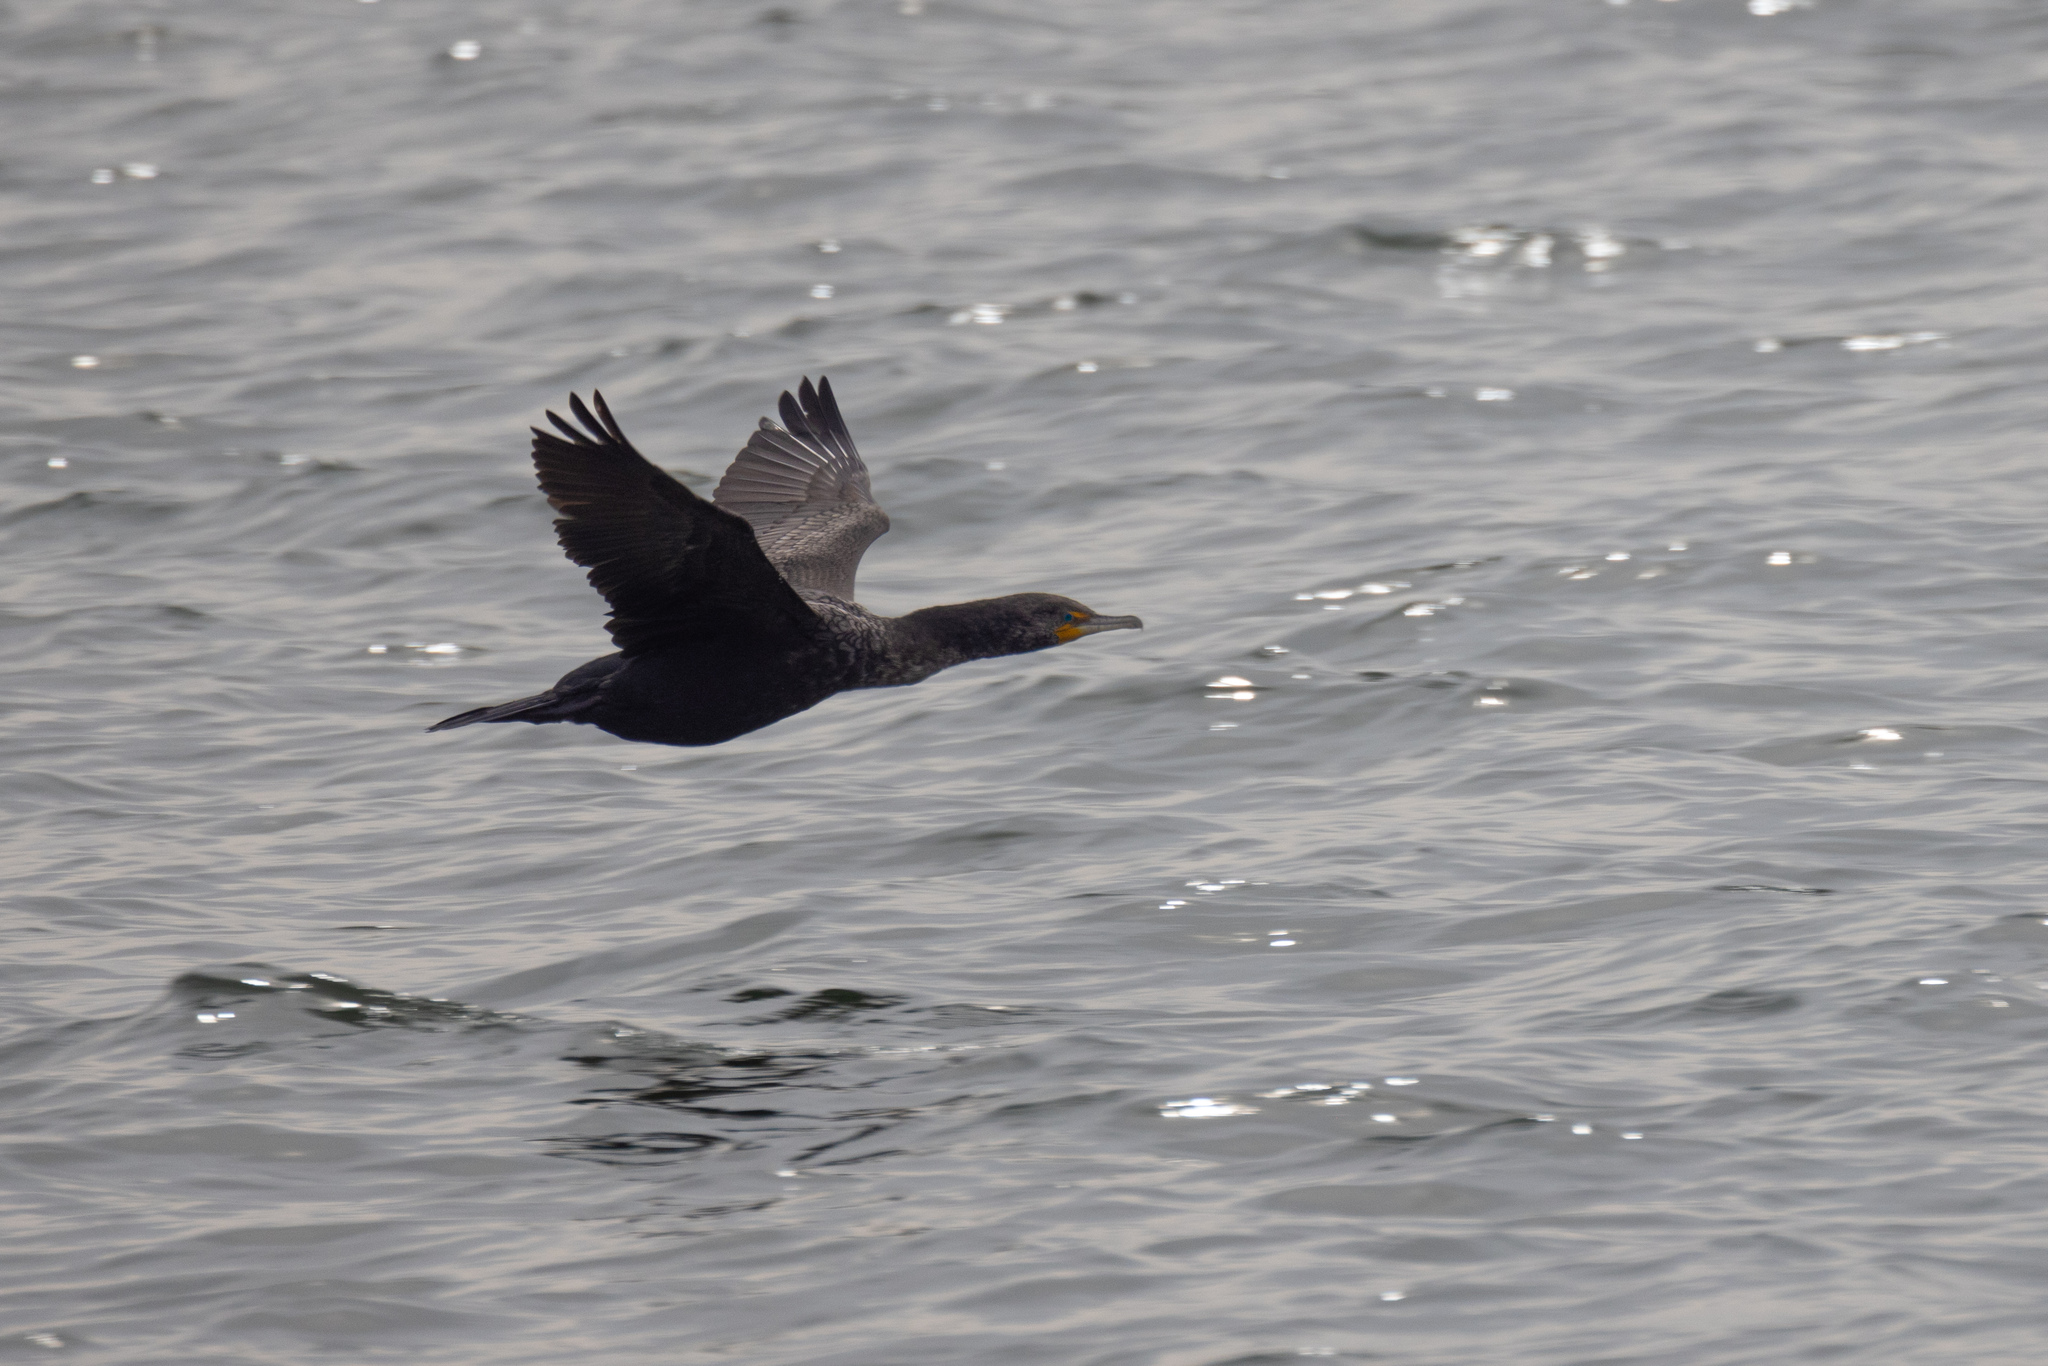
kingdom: Animalia
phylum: Chordata
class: Aves
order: Suliformes
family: Phalacrocoracidae
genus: Phalacrocorax
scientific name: Phalacrocorax auritus
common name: Double-crested cormorant
